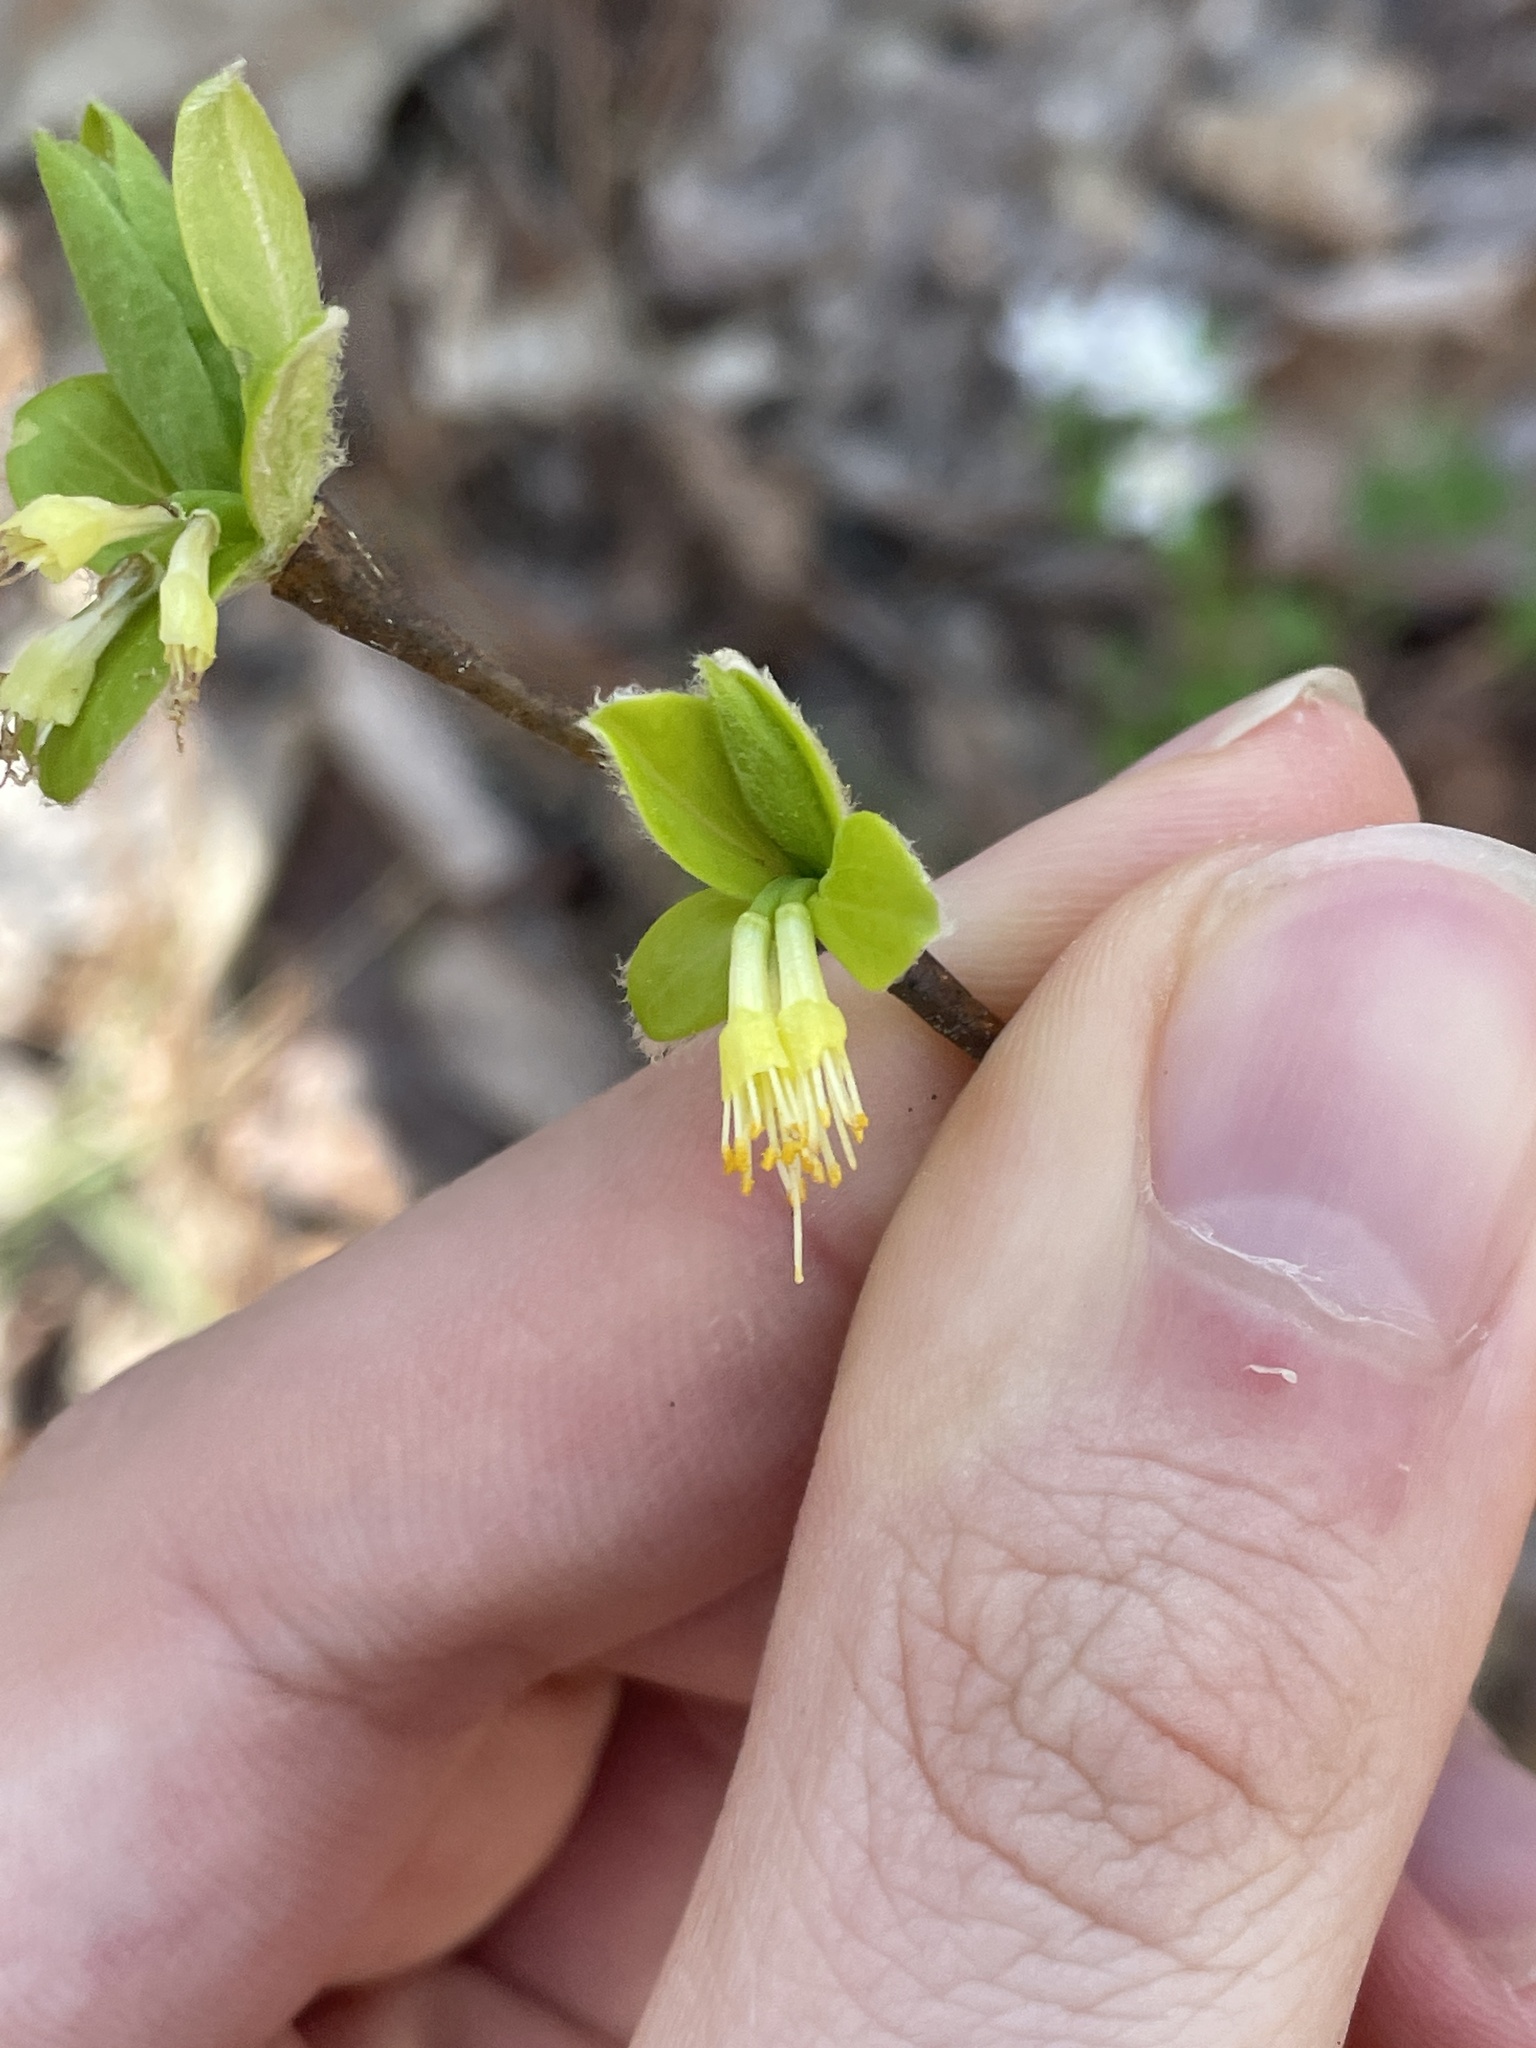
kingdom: Plantae
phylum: Tracheophyta
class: Magnoliopsida
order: Malvales
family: Thymelaeaceae
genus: Dirca
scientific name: Dirca palustris
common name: Leatherwood
